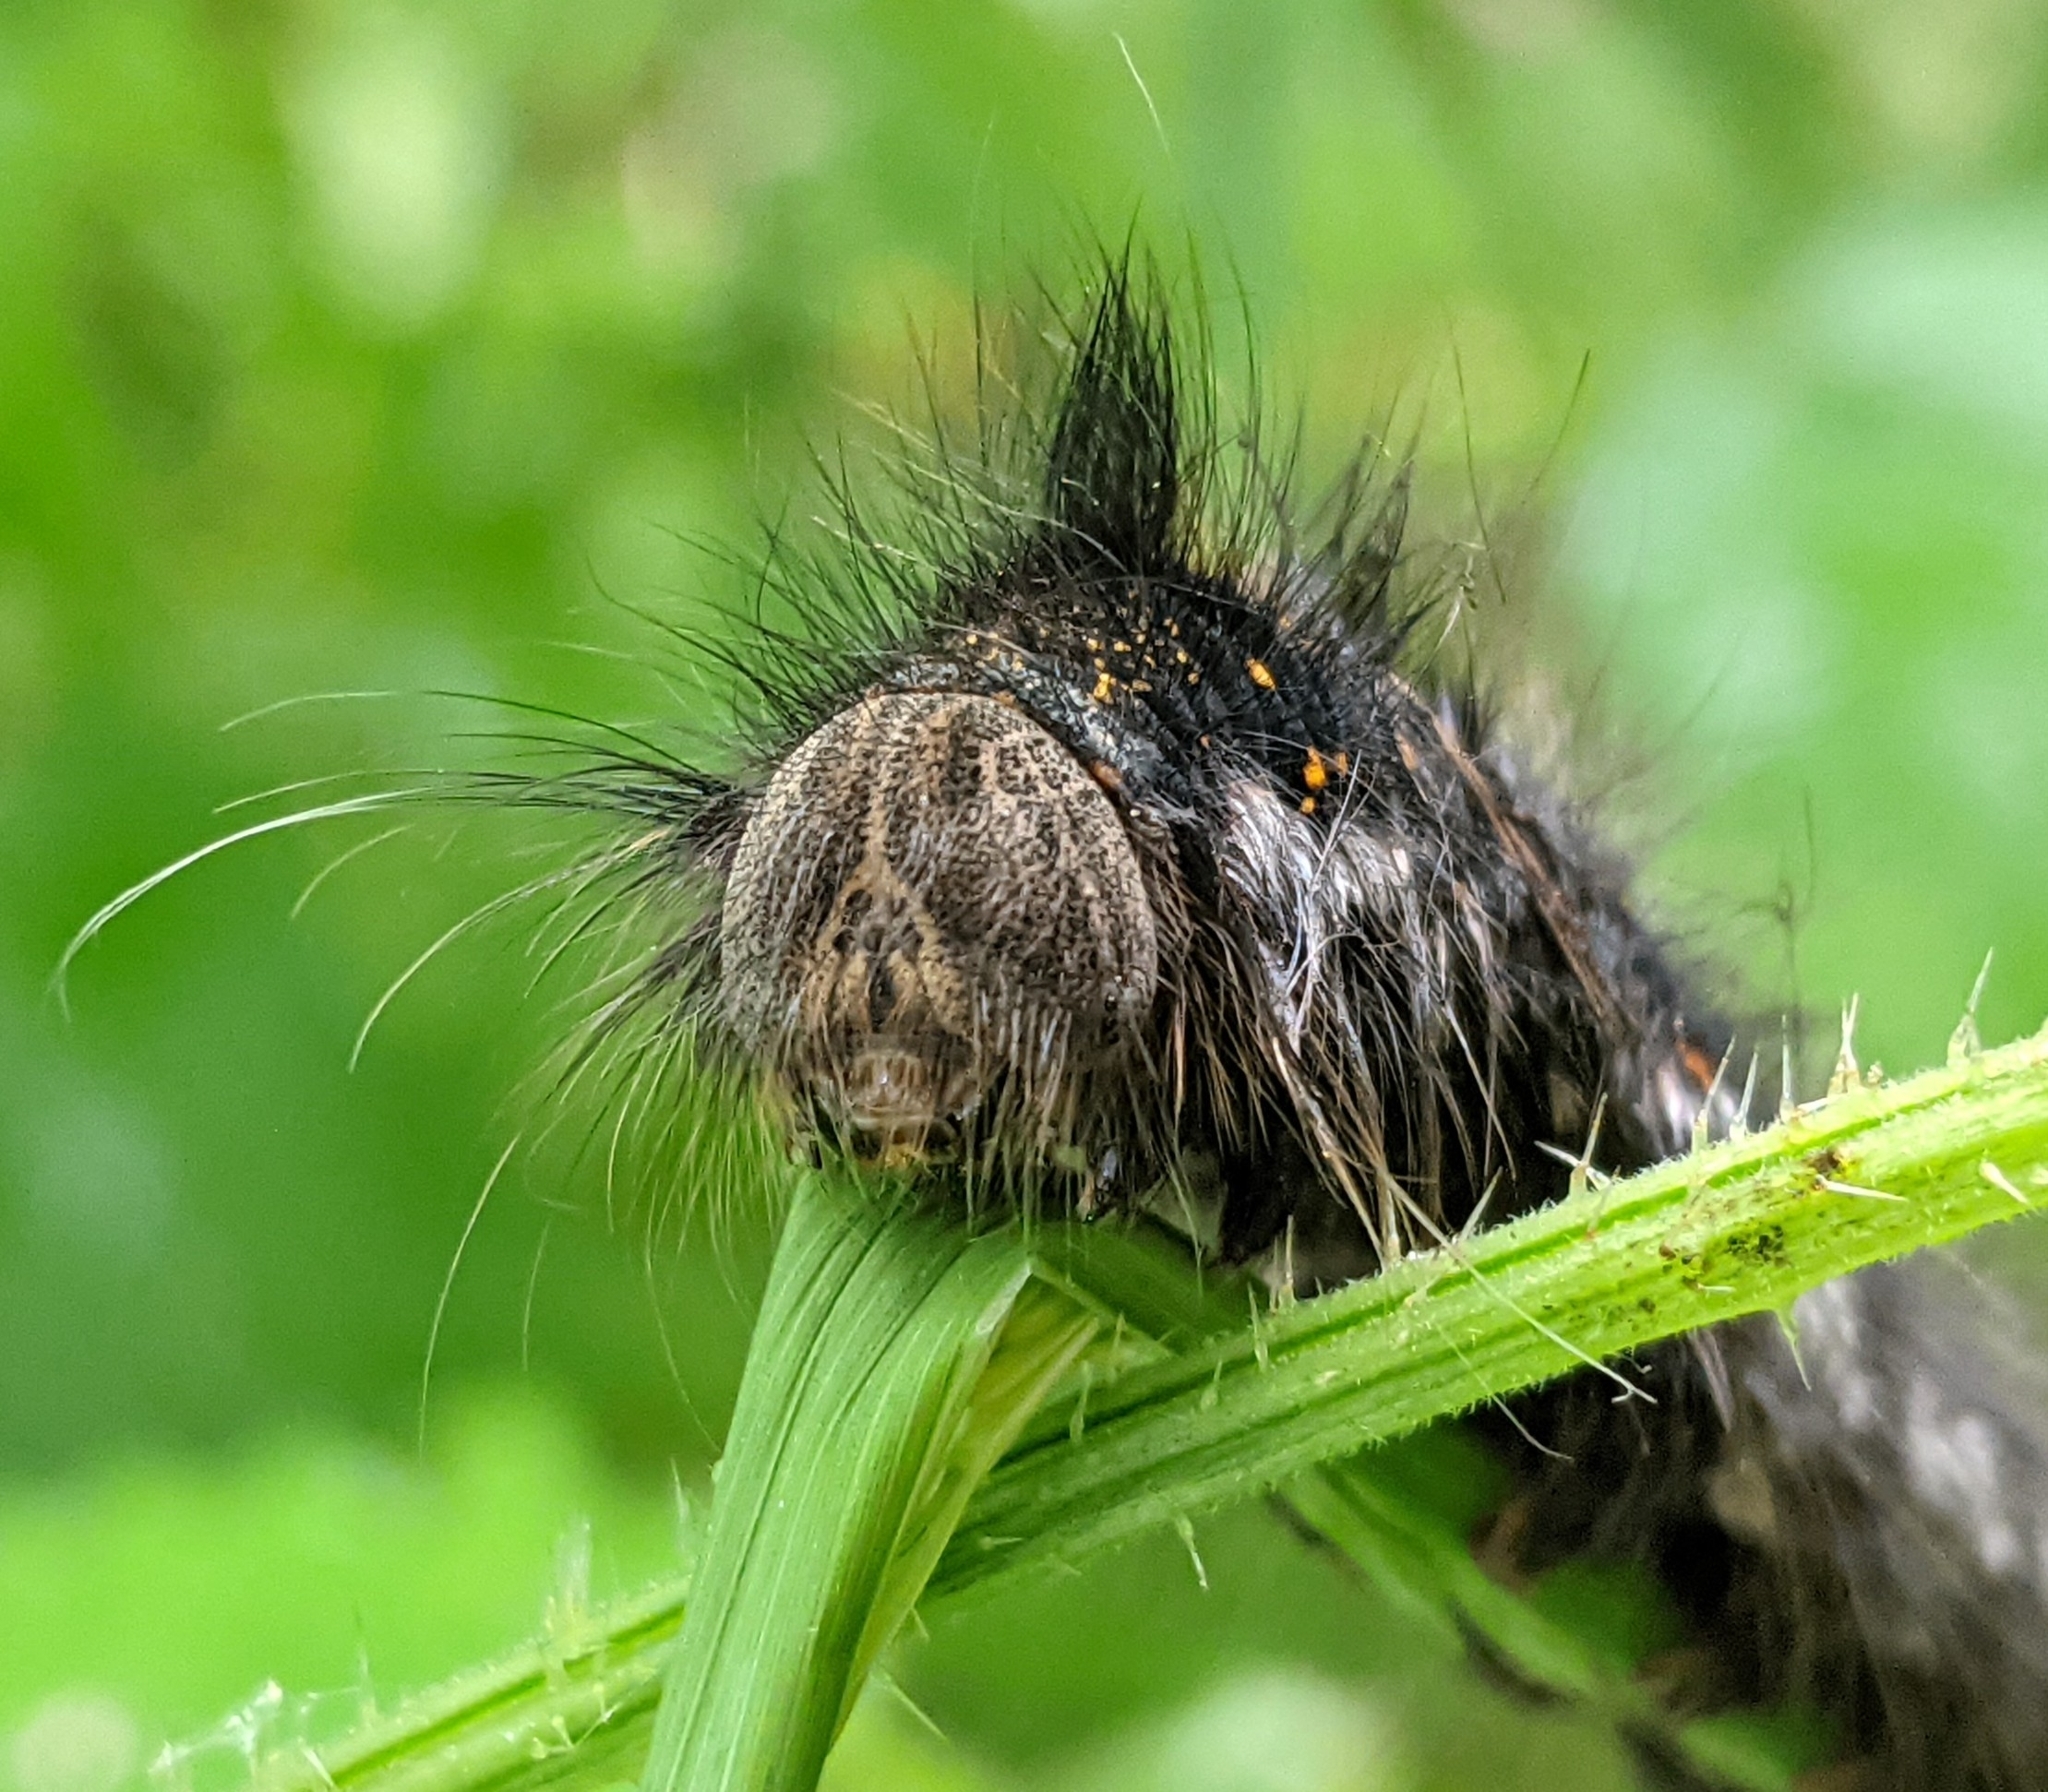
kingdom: Animalia
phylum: Arthropoda
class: Insecta
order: Lepidoptera
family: Lasiocampidae
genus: Euthrix
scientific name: Euthrix potatoria
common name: Drinker
